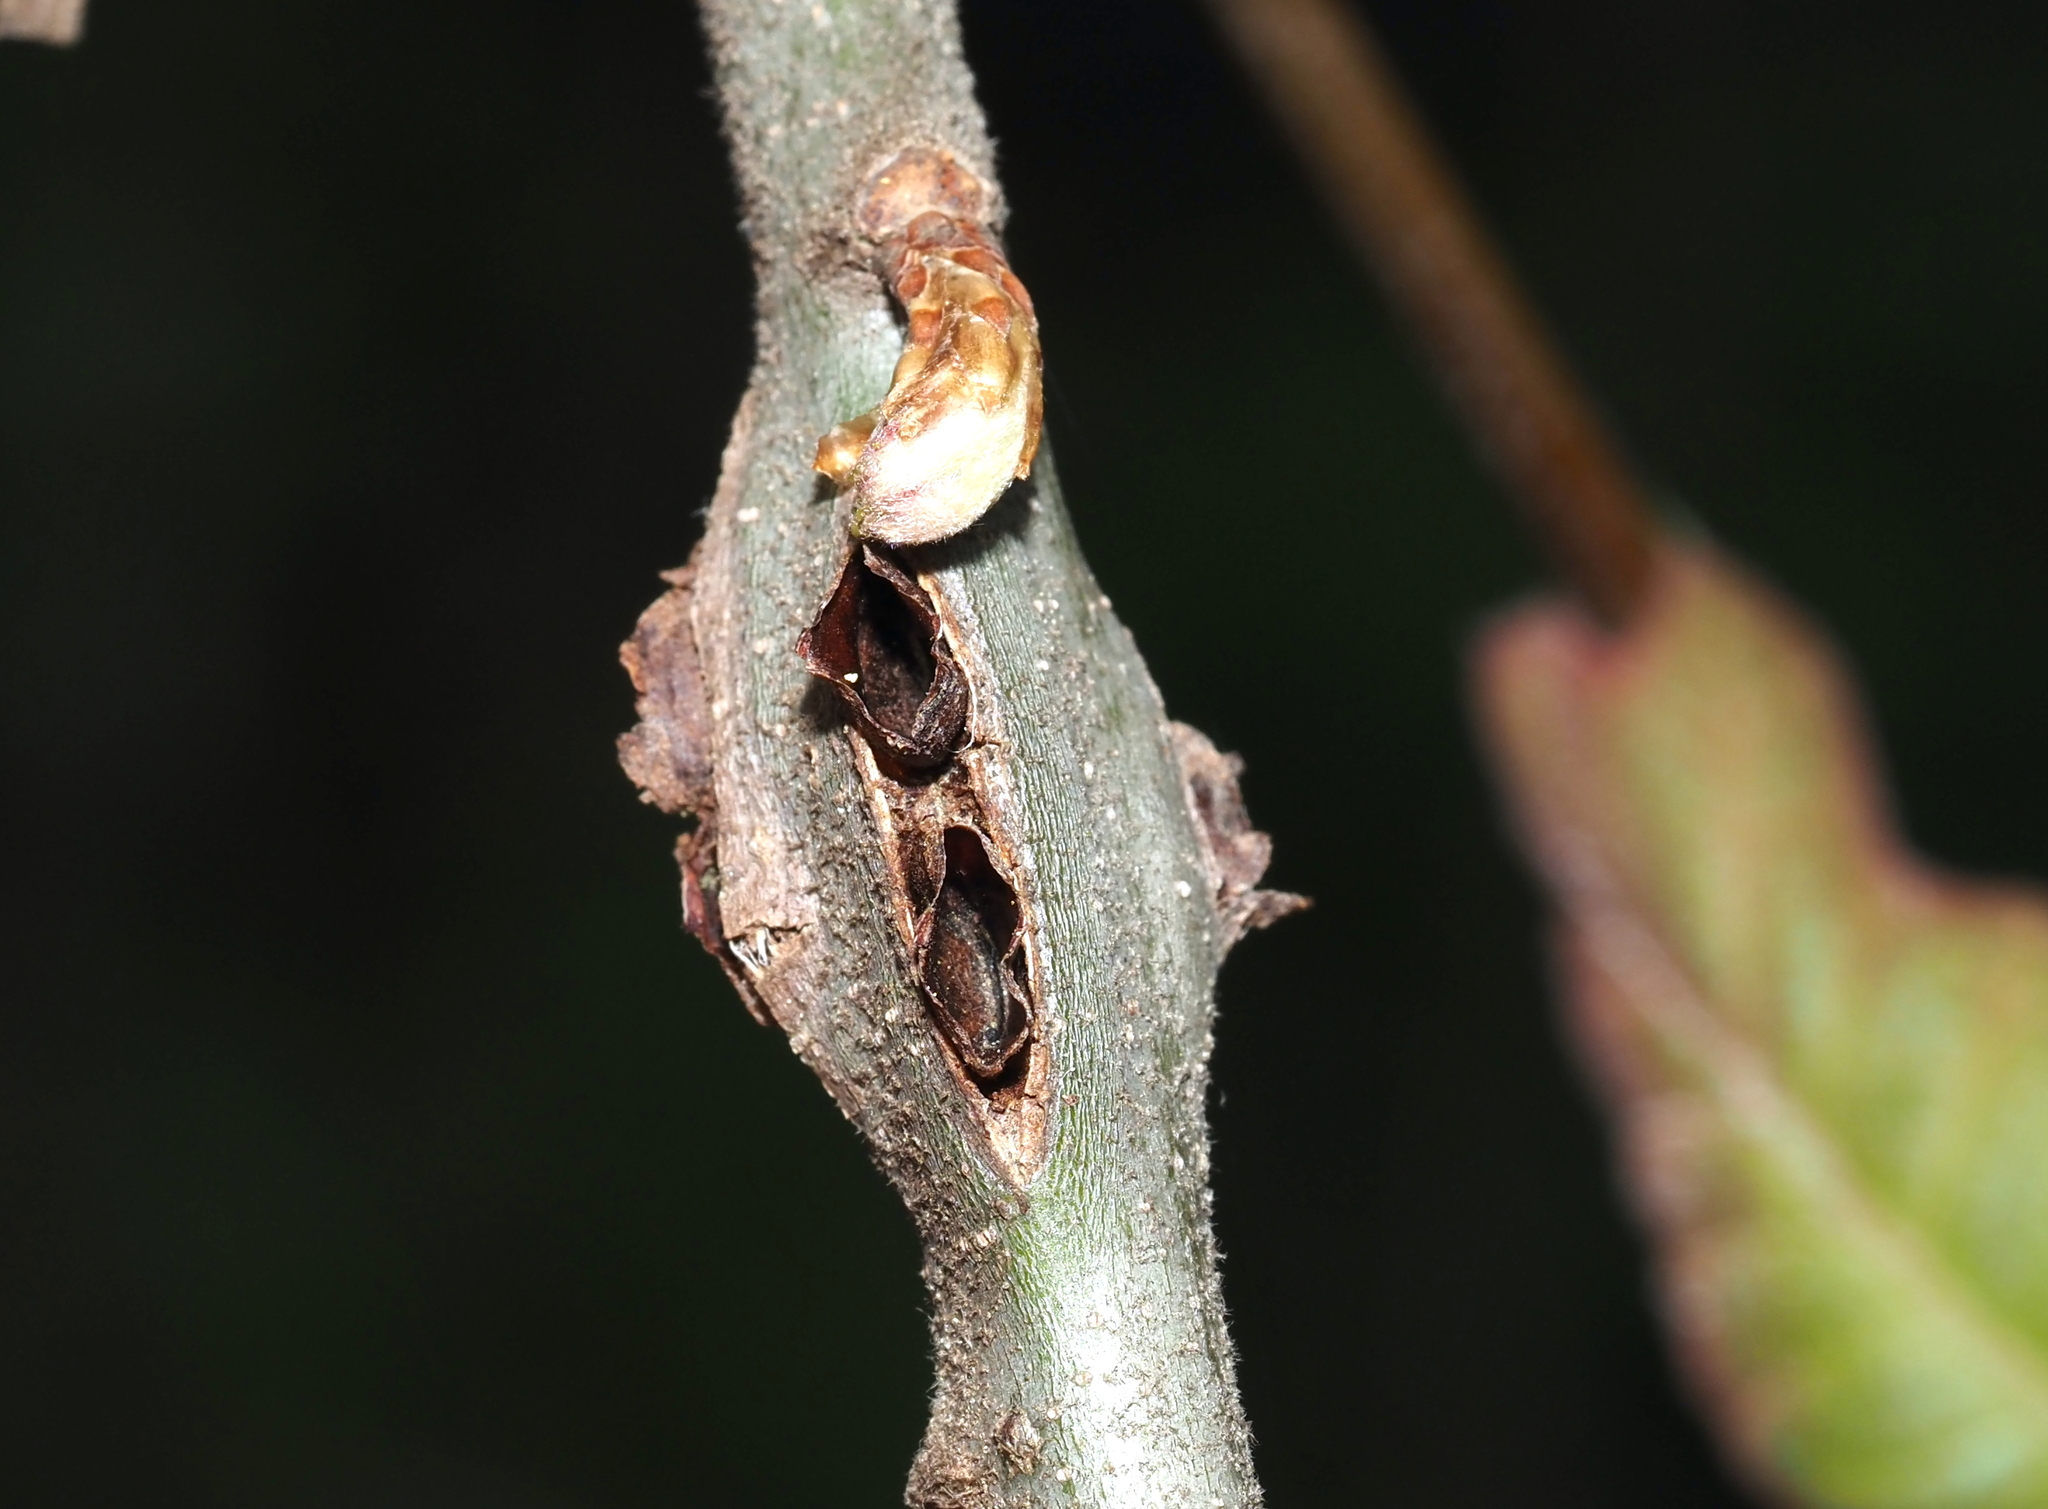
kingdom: Animalia
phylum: Arthropoda
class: Insecta
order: Hymenoptera
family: Cynipidae
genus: Callirhytis
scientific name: Callirhytis
